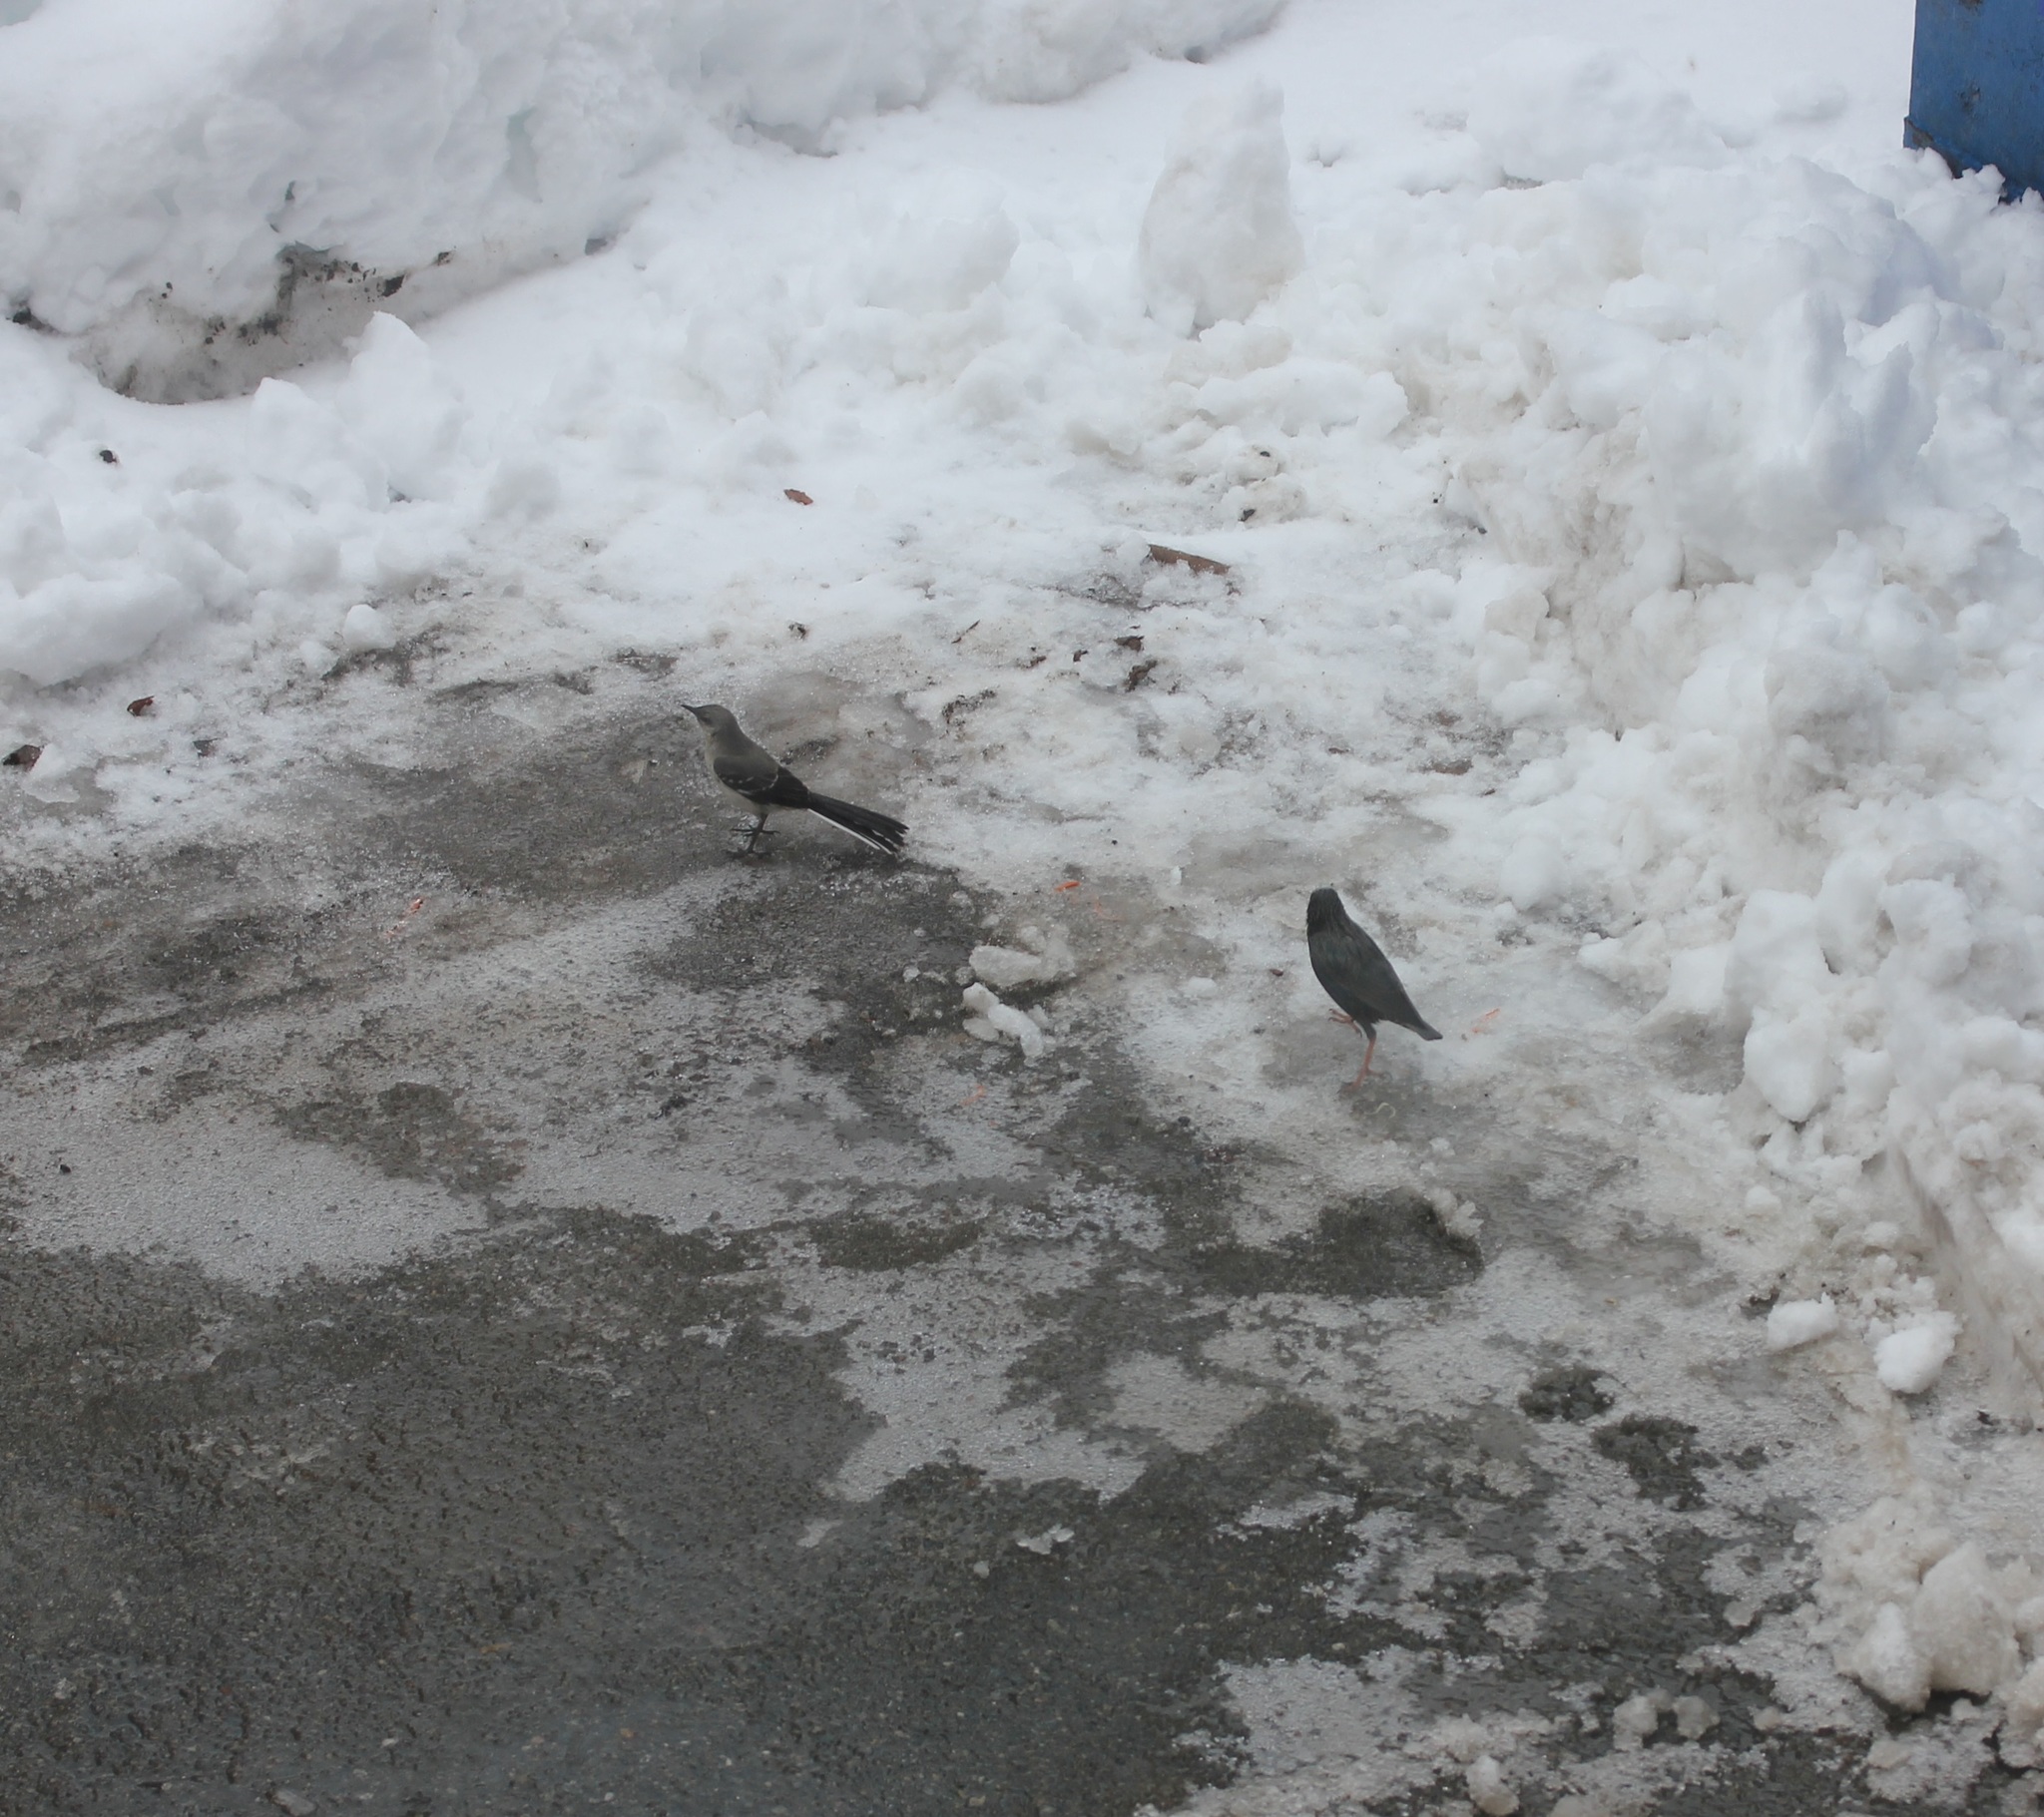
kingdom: Animalia
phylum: Chordata
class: Aves
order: Passeriformes
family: Mimidae
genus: Mimus
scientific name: Mimus polyglottos
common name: Northern mockingbird
